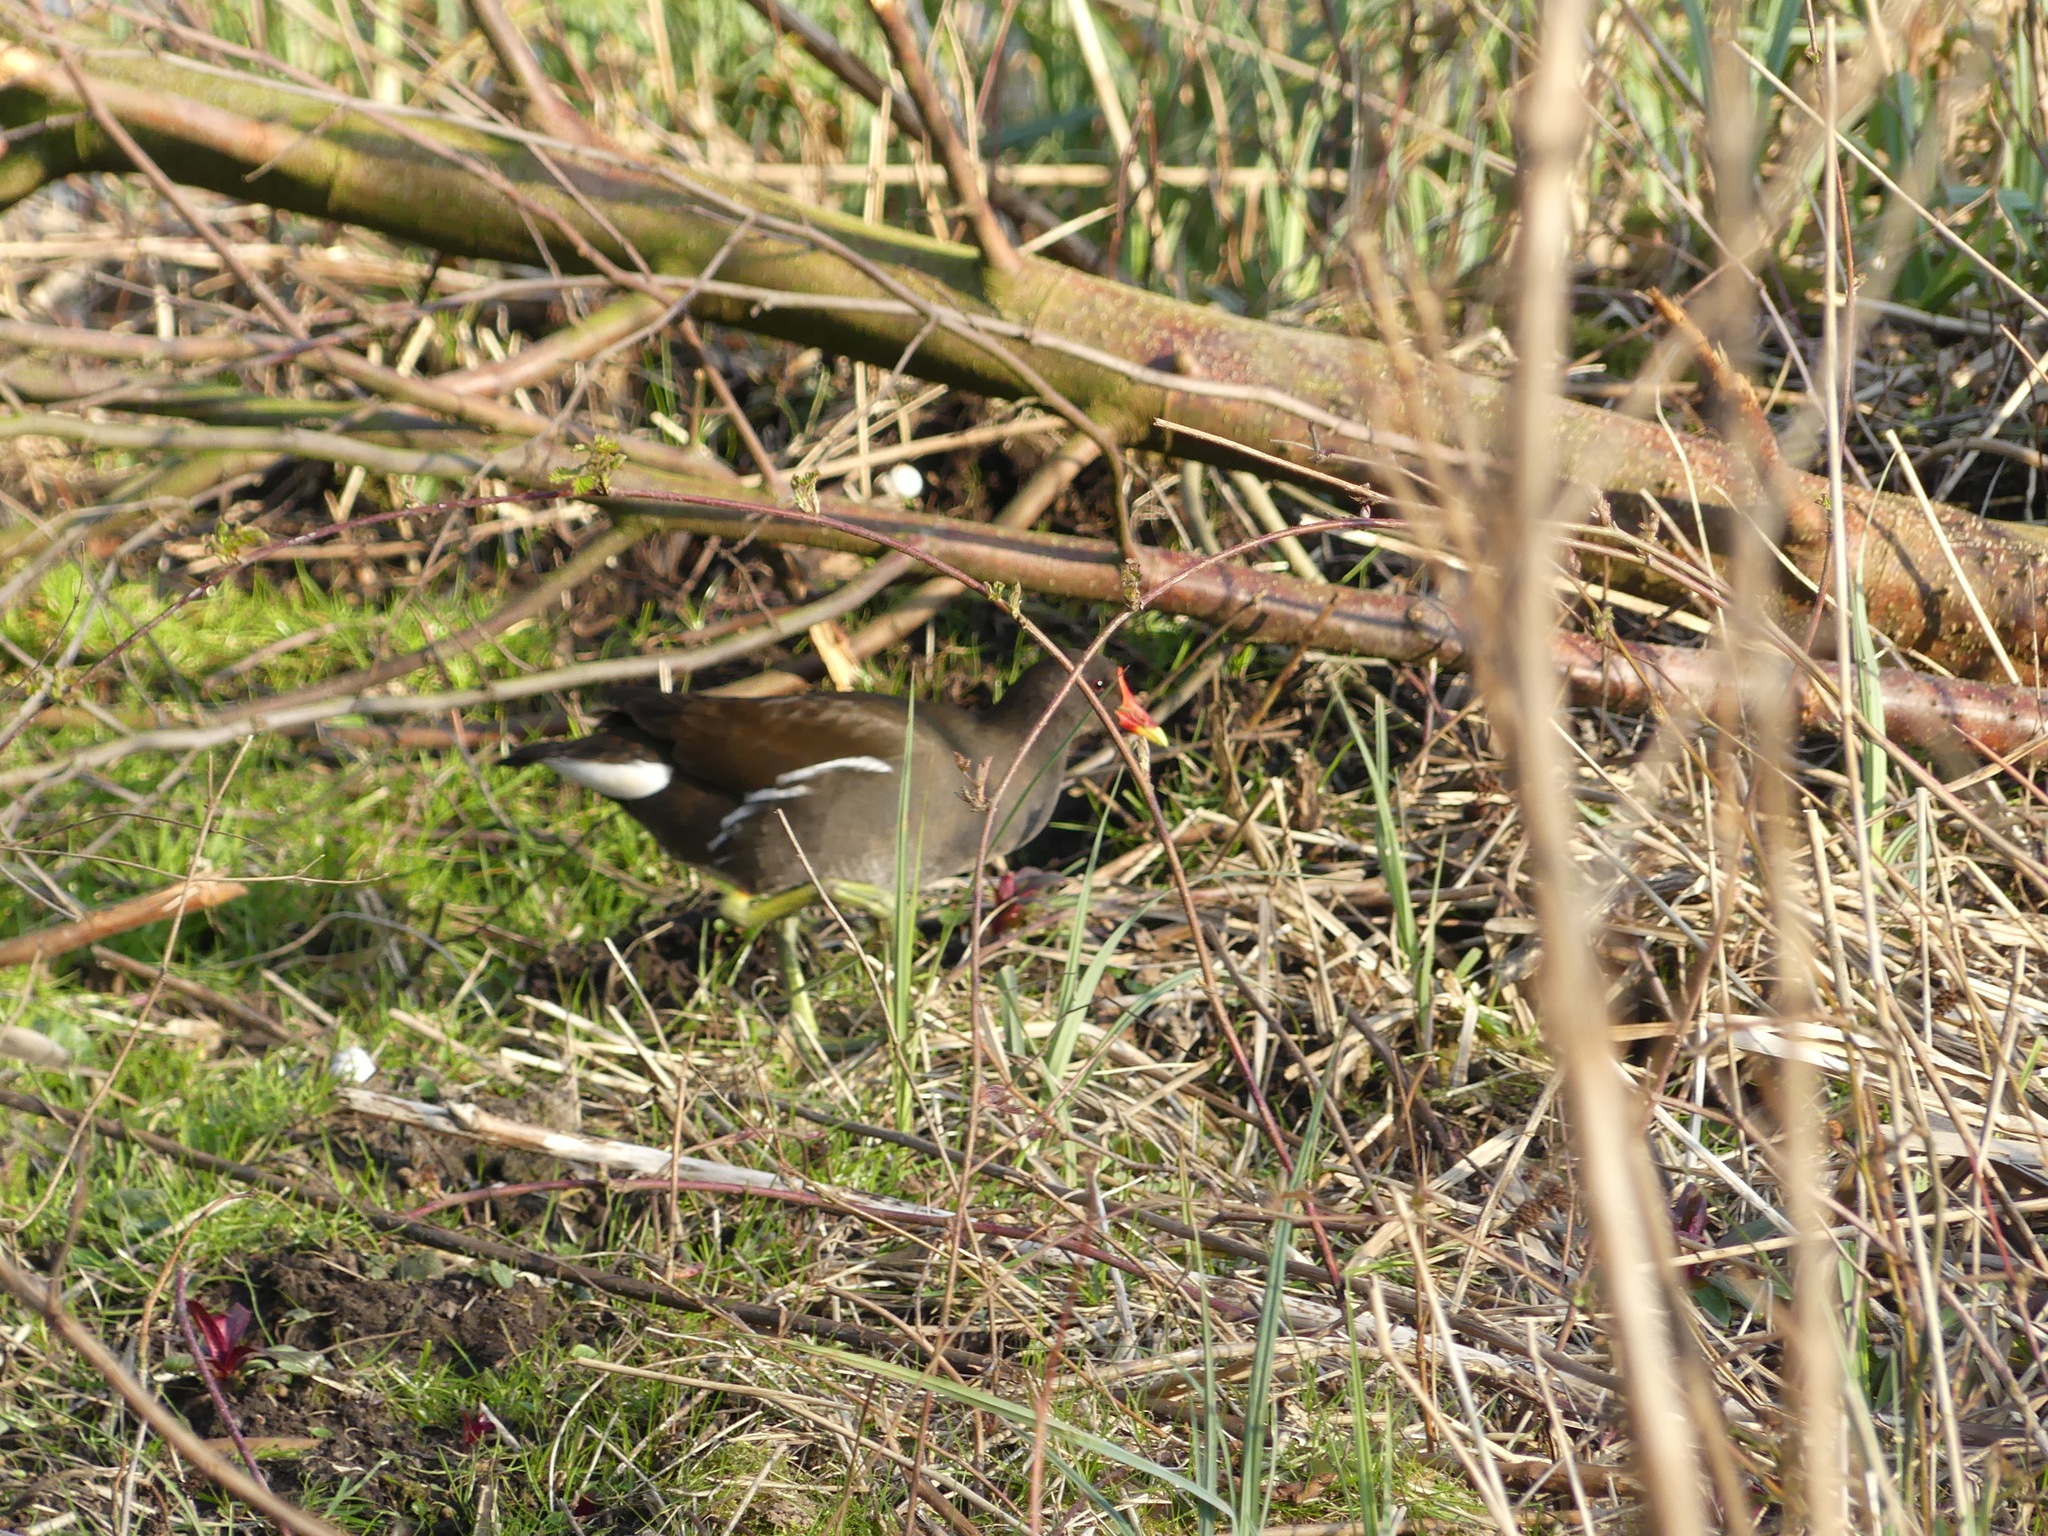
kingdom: Animalia
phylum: Chordata
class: Aves
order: Gruiformes
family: Rallidae
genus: Gallinula
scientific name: Gallinula chloropus
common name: Common moorhen
